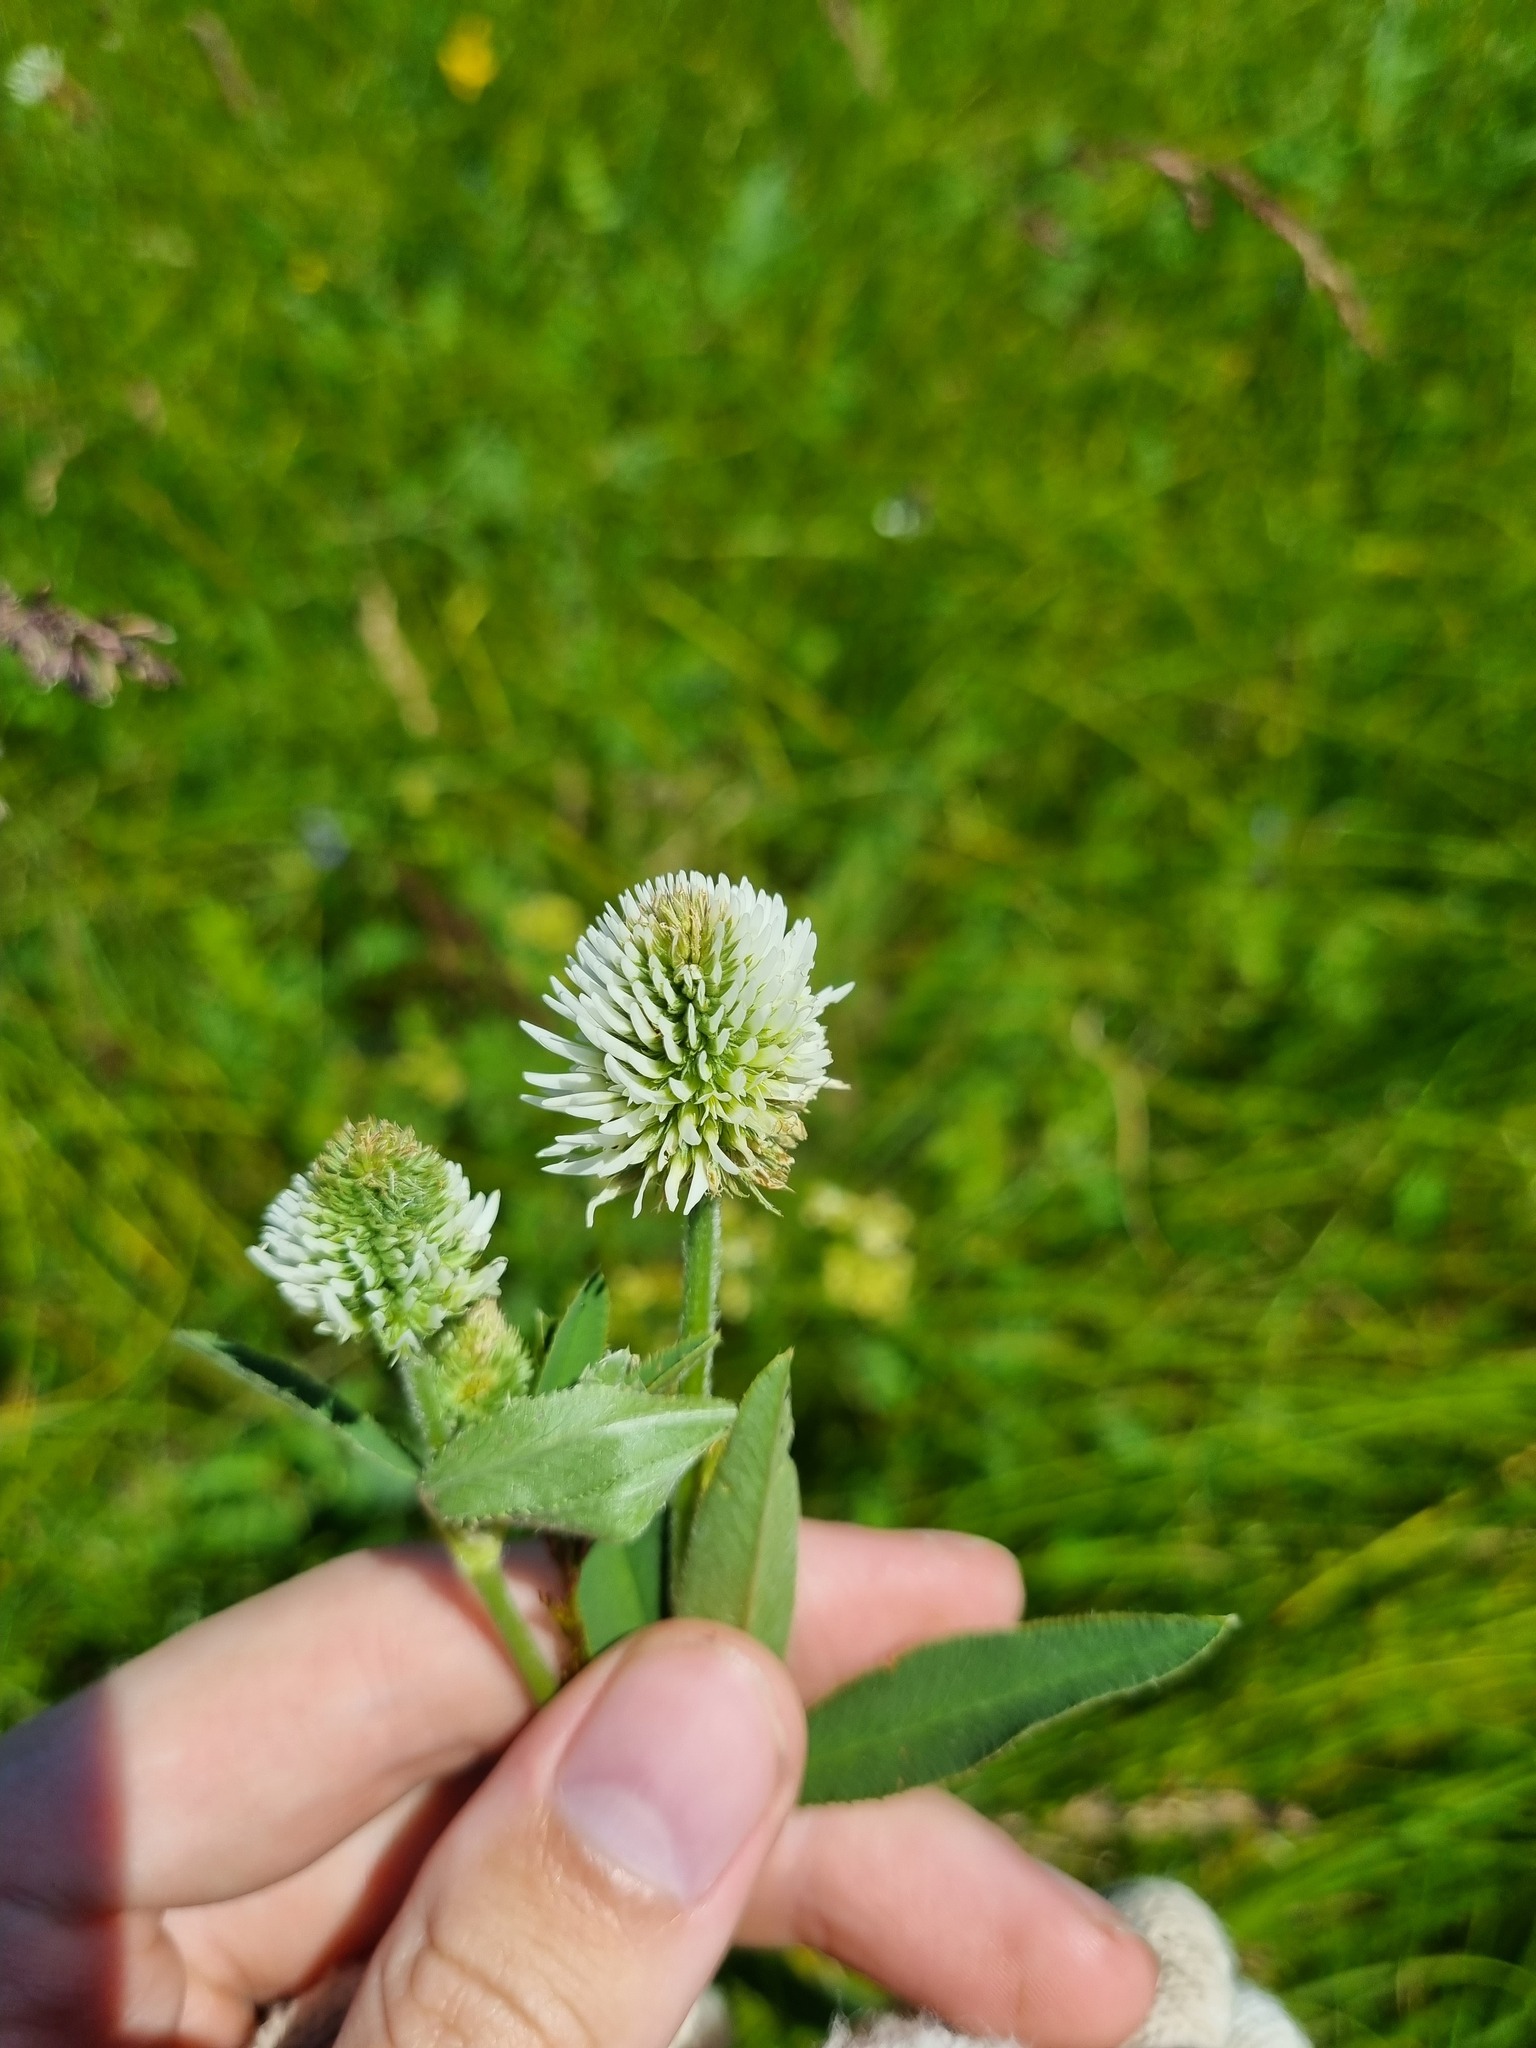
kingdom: Plantae
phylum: Tracheophyta
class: Magnoliopsida
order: Fabales
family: Fabaceae
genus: Trifolium
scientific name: Trifolium montanum
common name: Mountain clover
